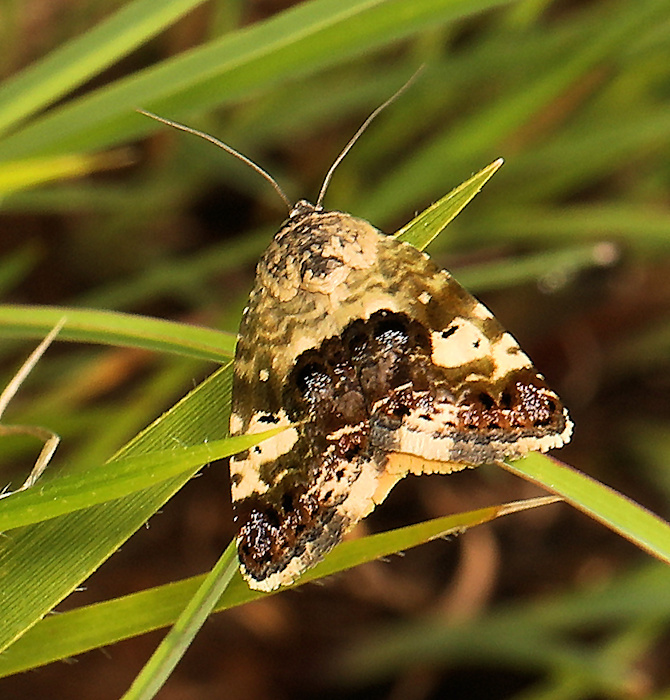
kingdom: Animalia
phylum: Arthropoda
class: Insecta
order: Lepidoptera
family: Noctuidae
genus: Hoplotarache
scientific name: Hoplotarache dispar
